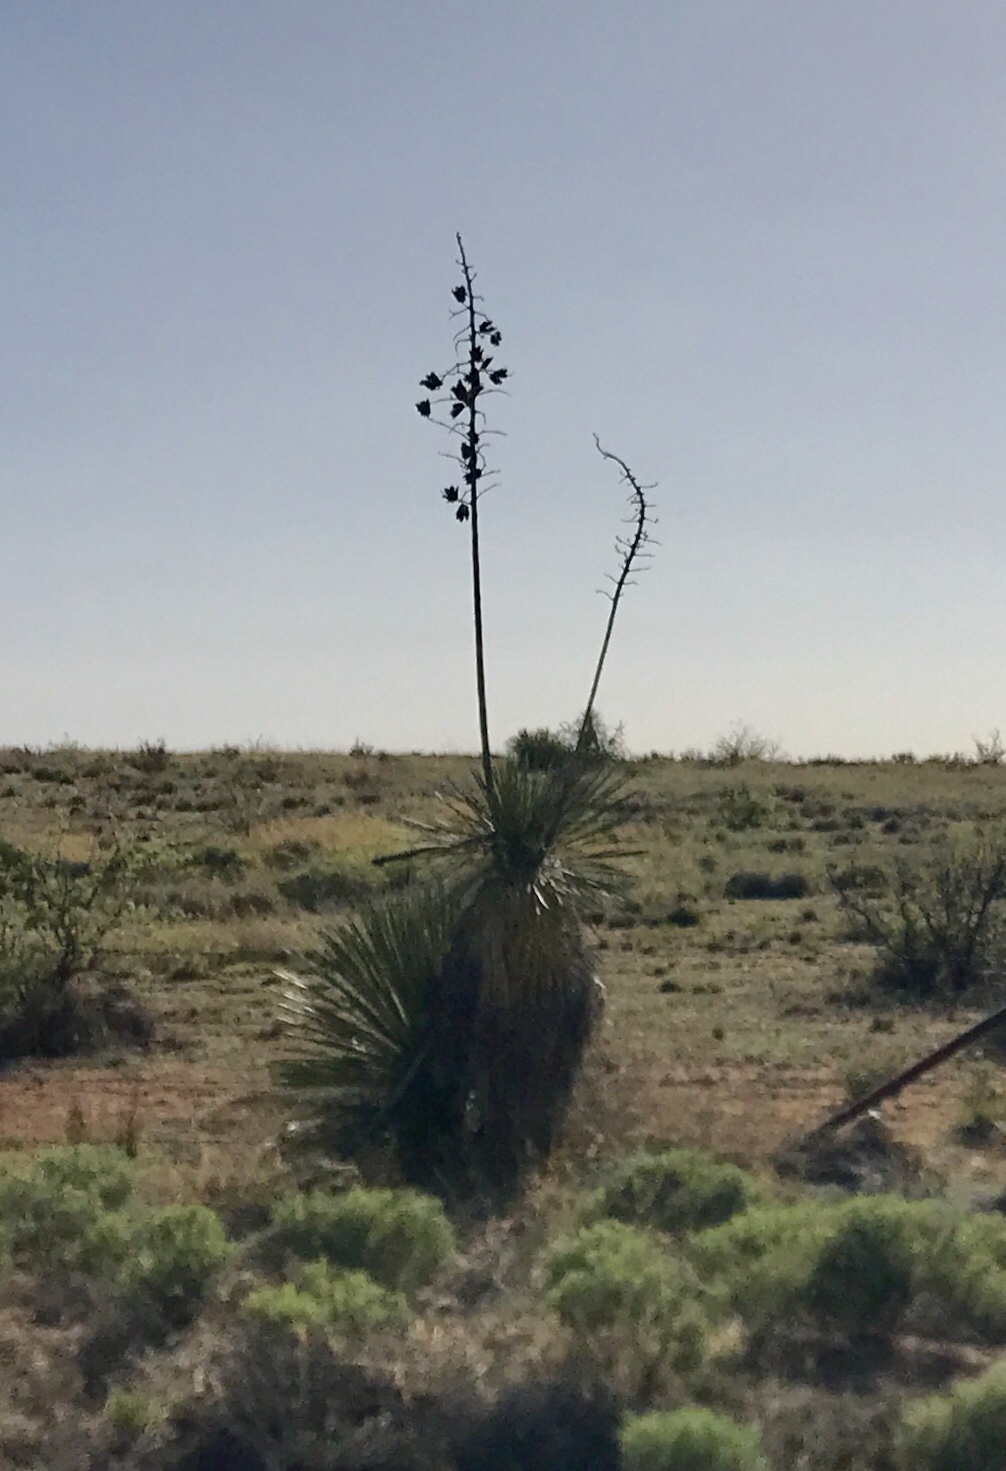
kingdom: Plantae
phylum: Tracheophyta
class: Liliopsida
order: Asparagales
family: Asparagaceae
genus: Yucca
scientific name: Yucca elata
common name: Palmella
